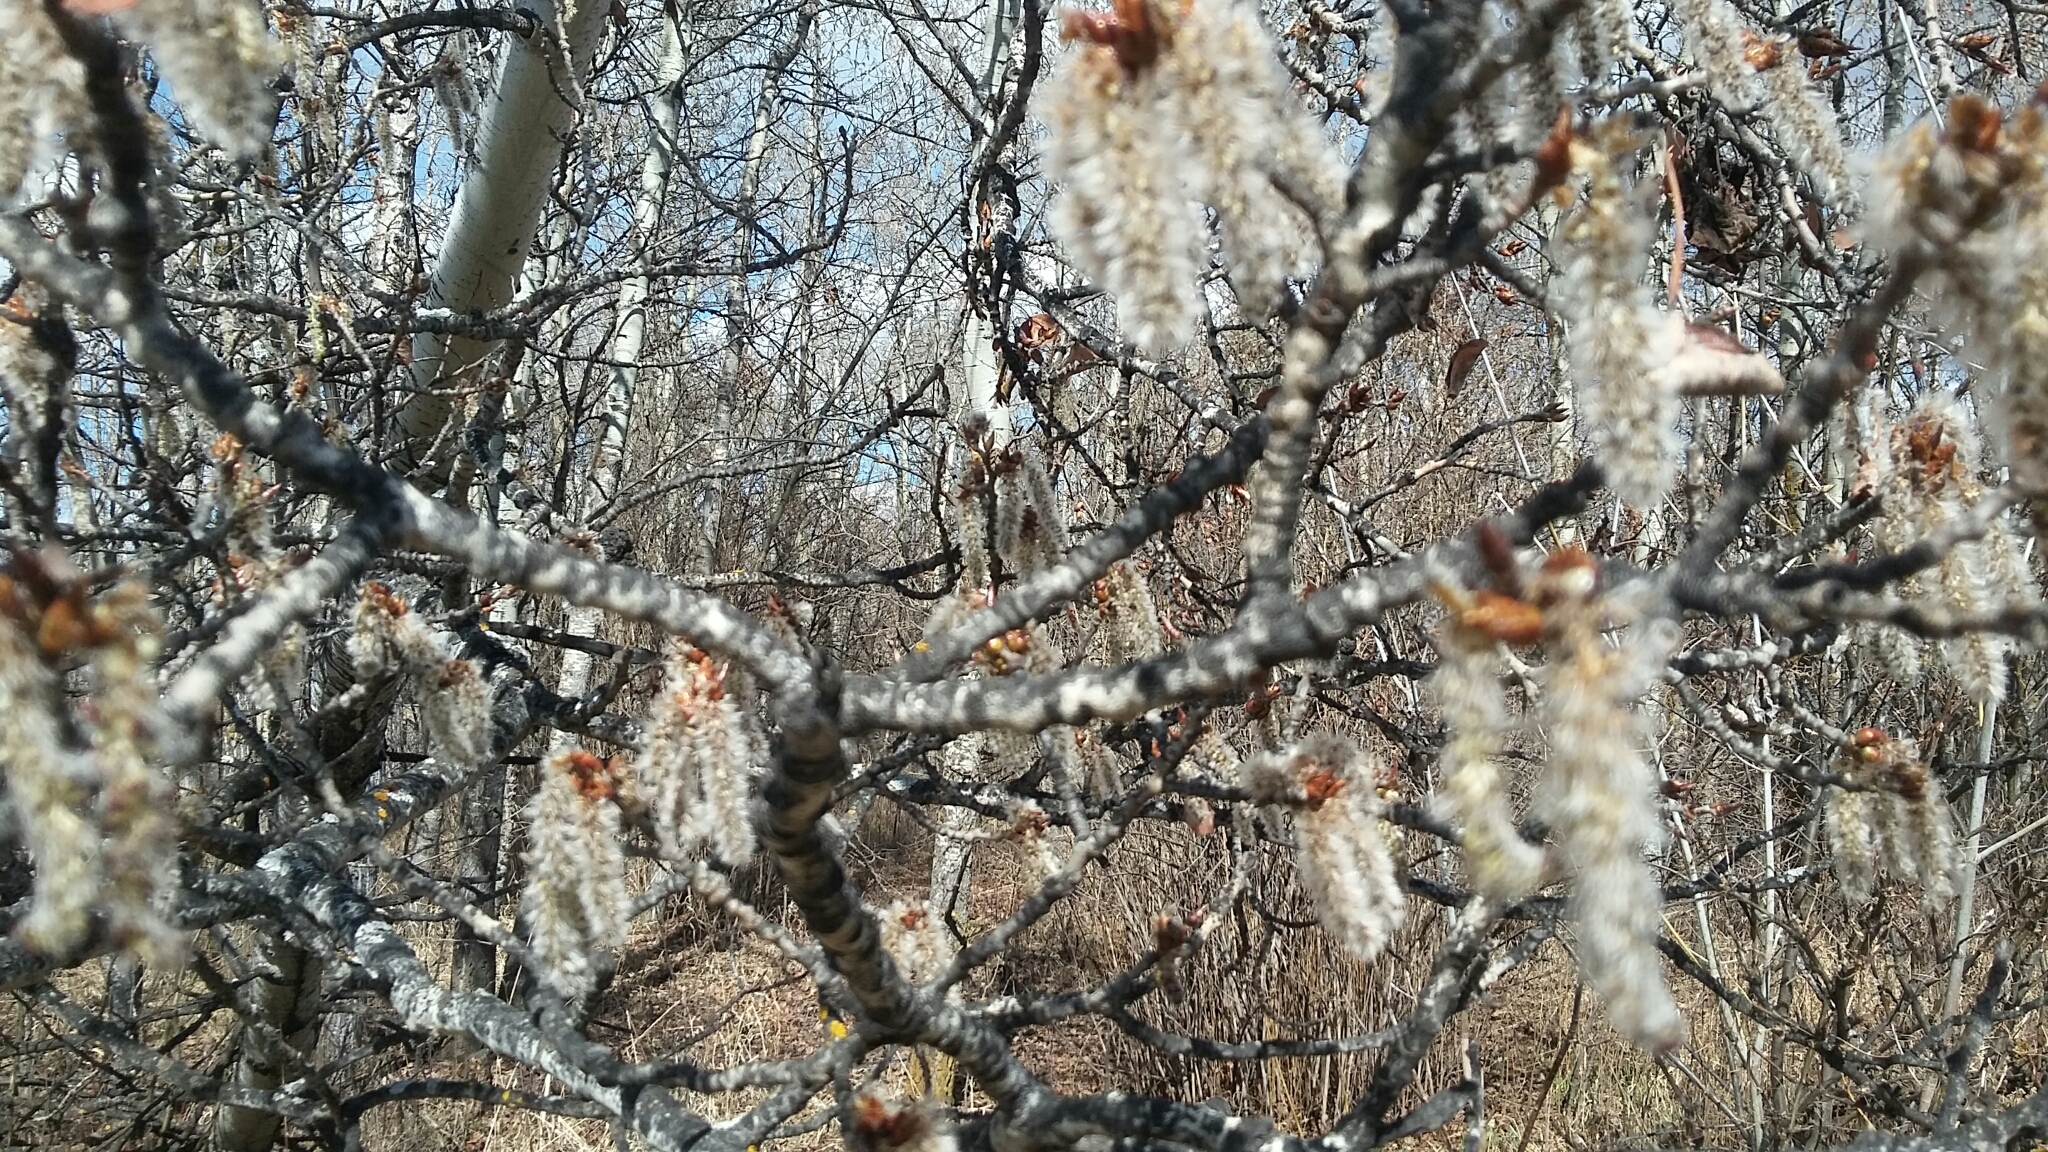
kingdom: Plantae
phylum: Tracheophyta
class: Magnoliopsida
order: Malpighiales
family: Salicaceae
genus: Populus
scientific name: Populus tremuloides
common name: Quaking aspen
